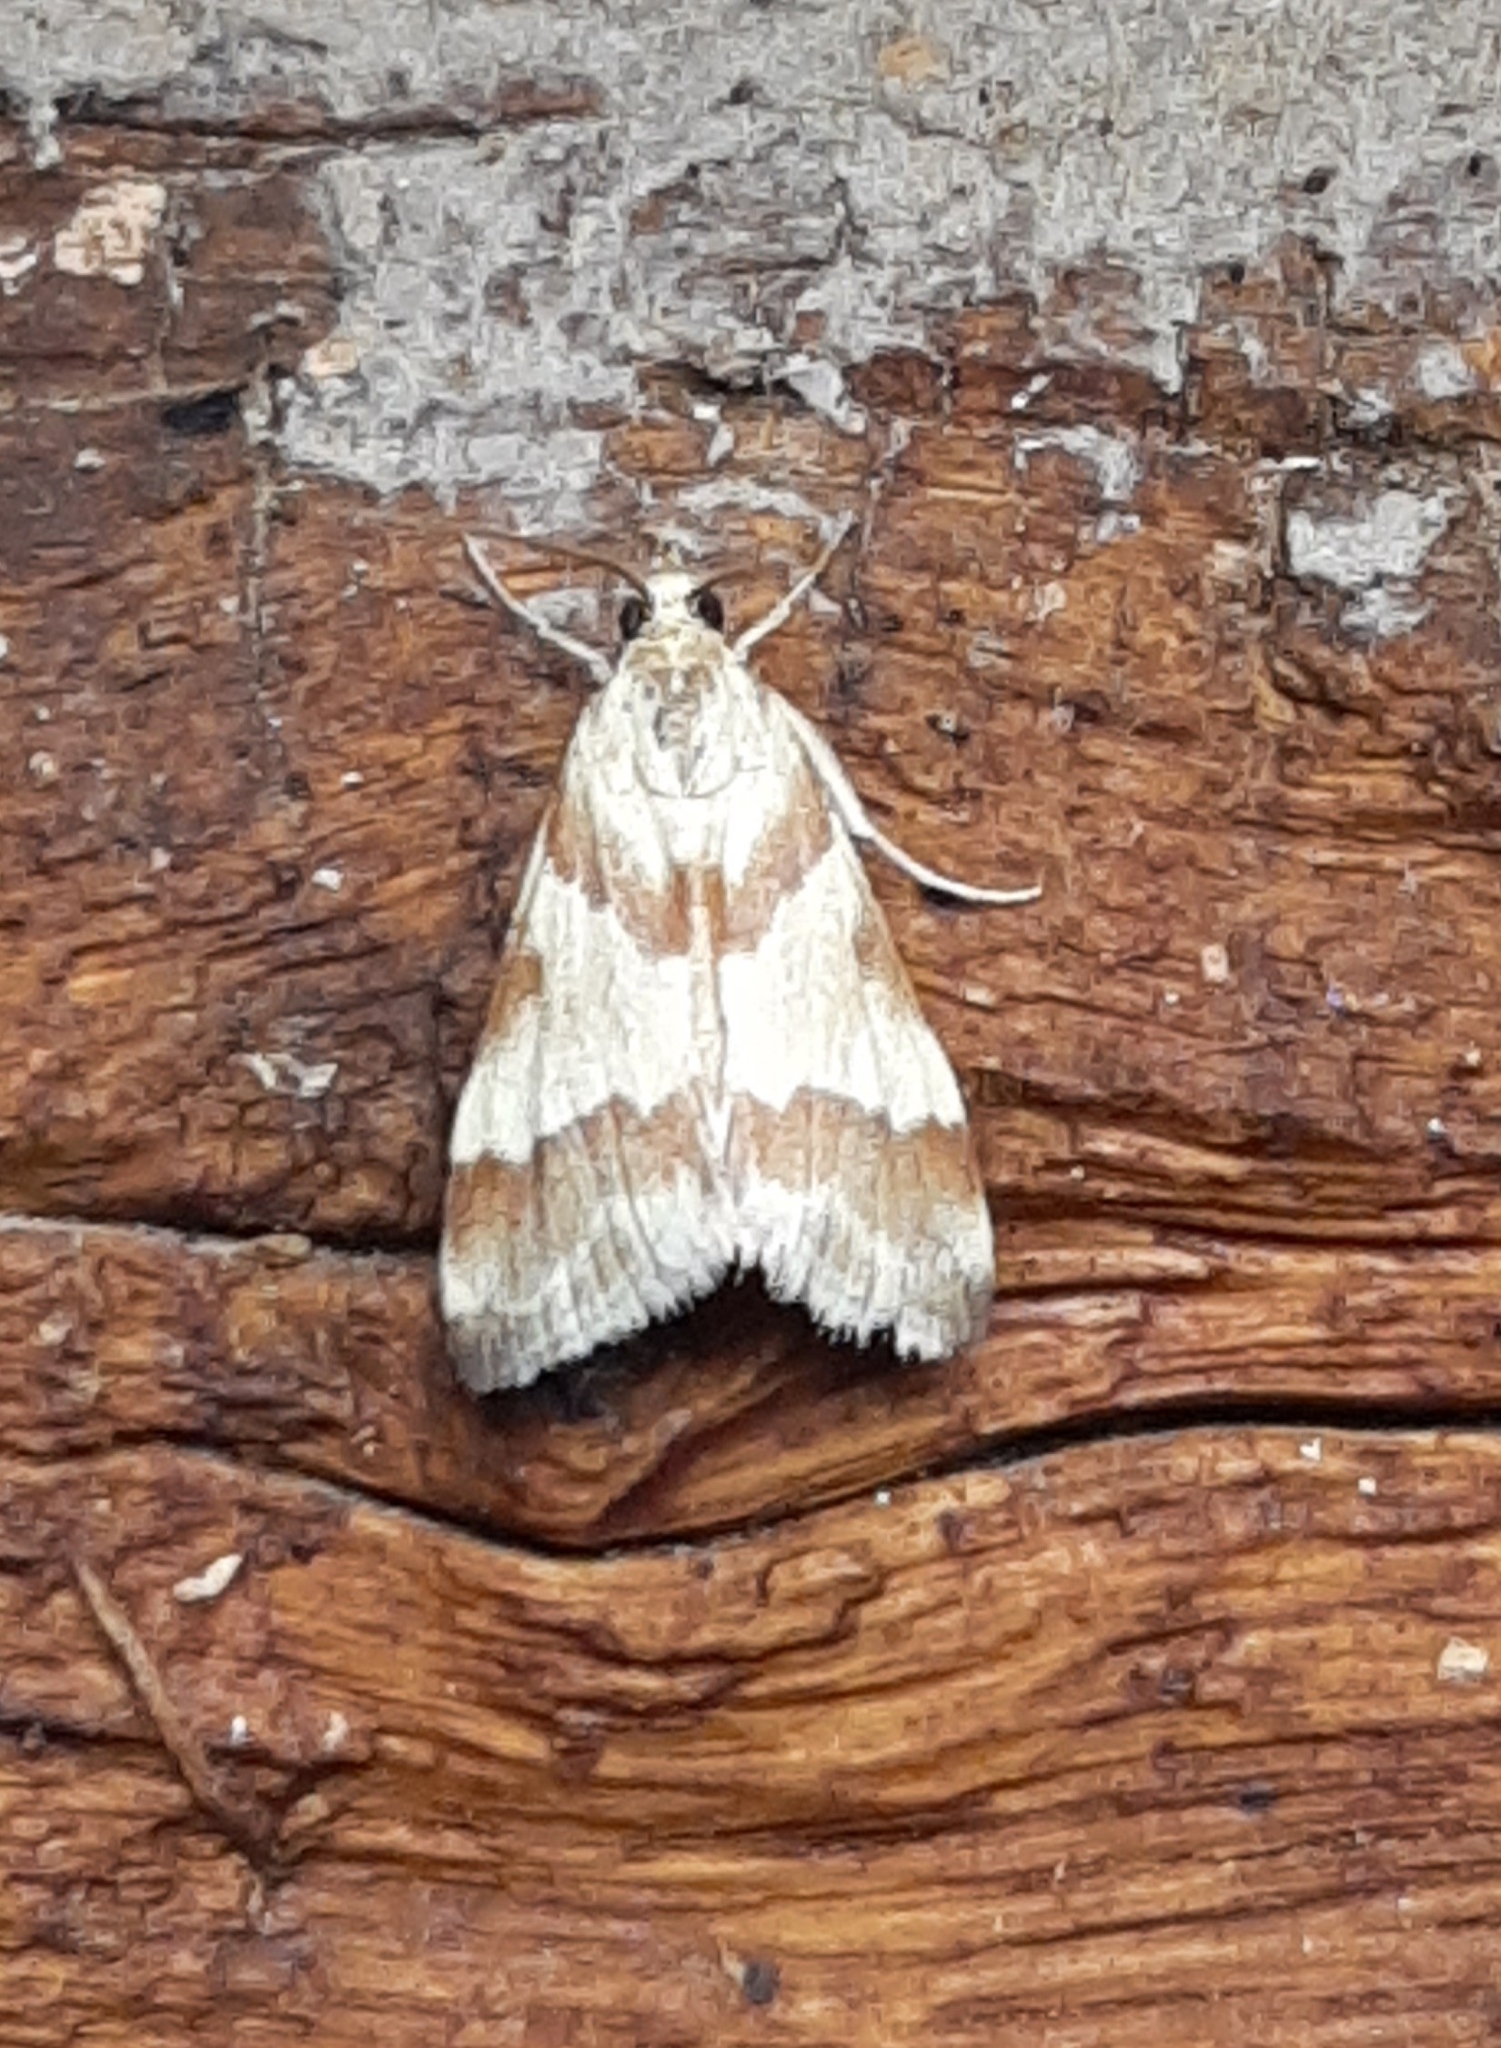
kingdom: Animalia
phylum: Arthropoda
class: Insecta
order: Lepidoptera
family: Crambidae
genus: Noctuelia
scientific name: Noctuelia Mimoschinia rufofascialis
